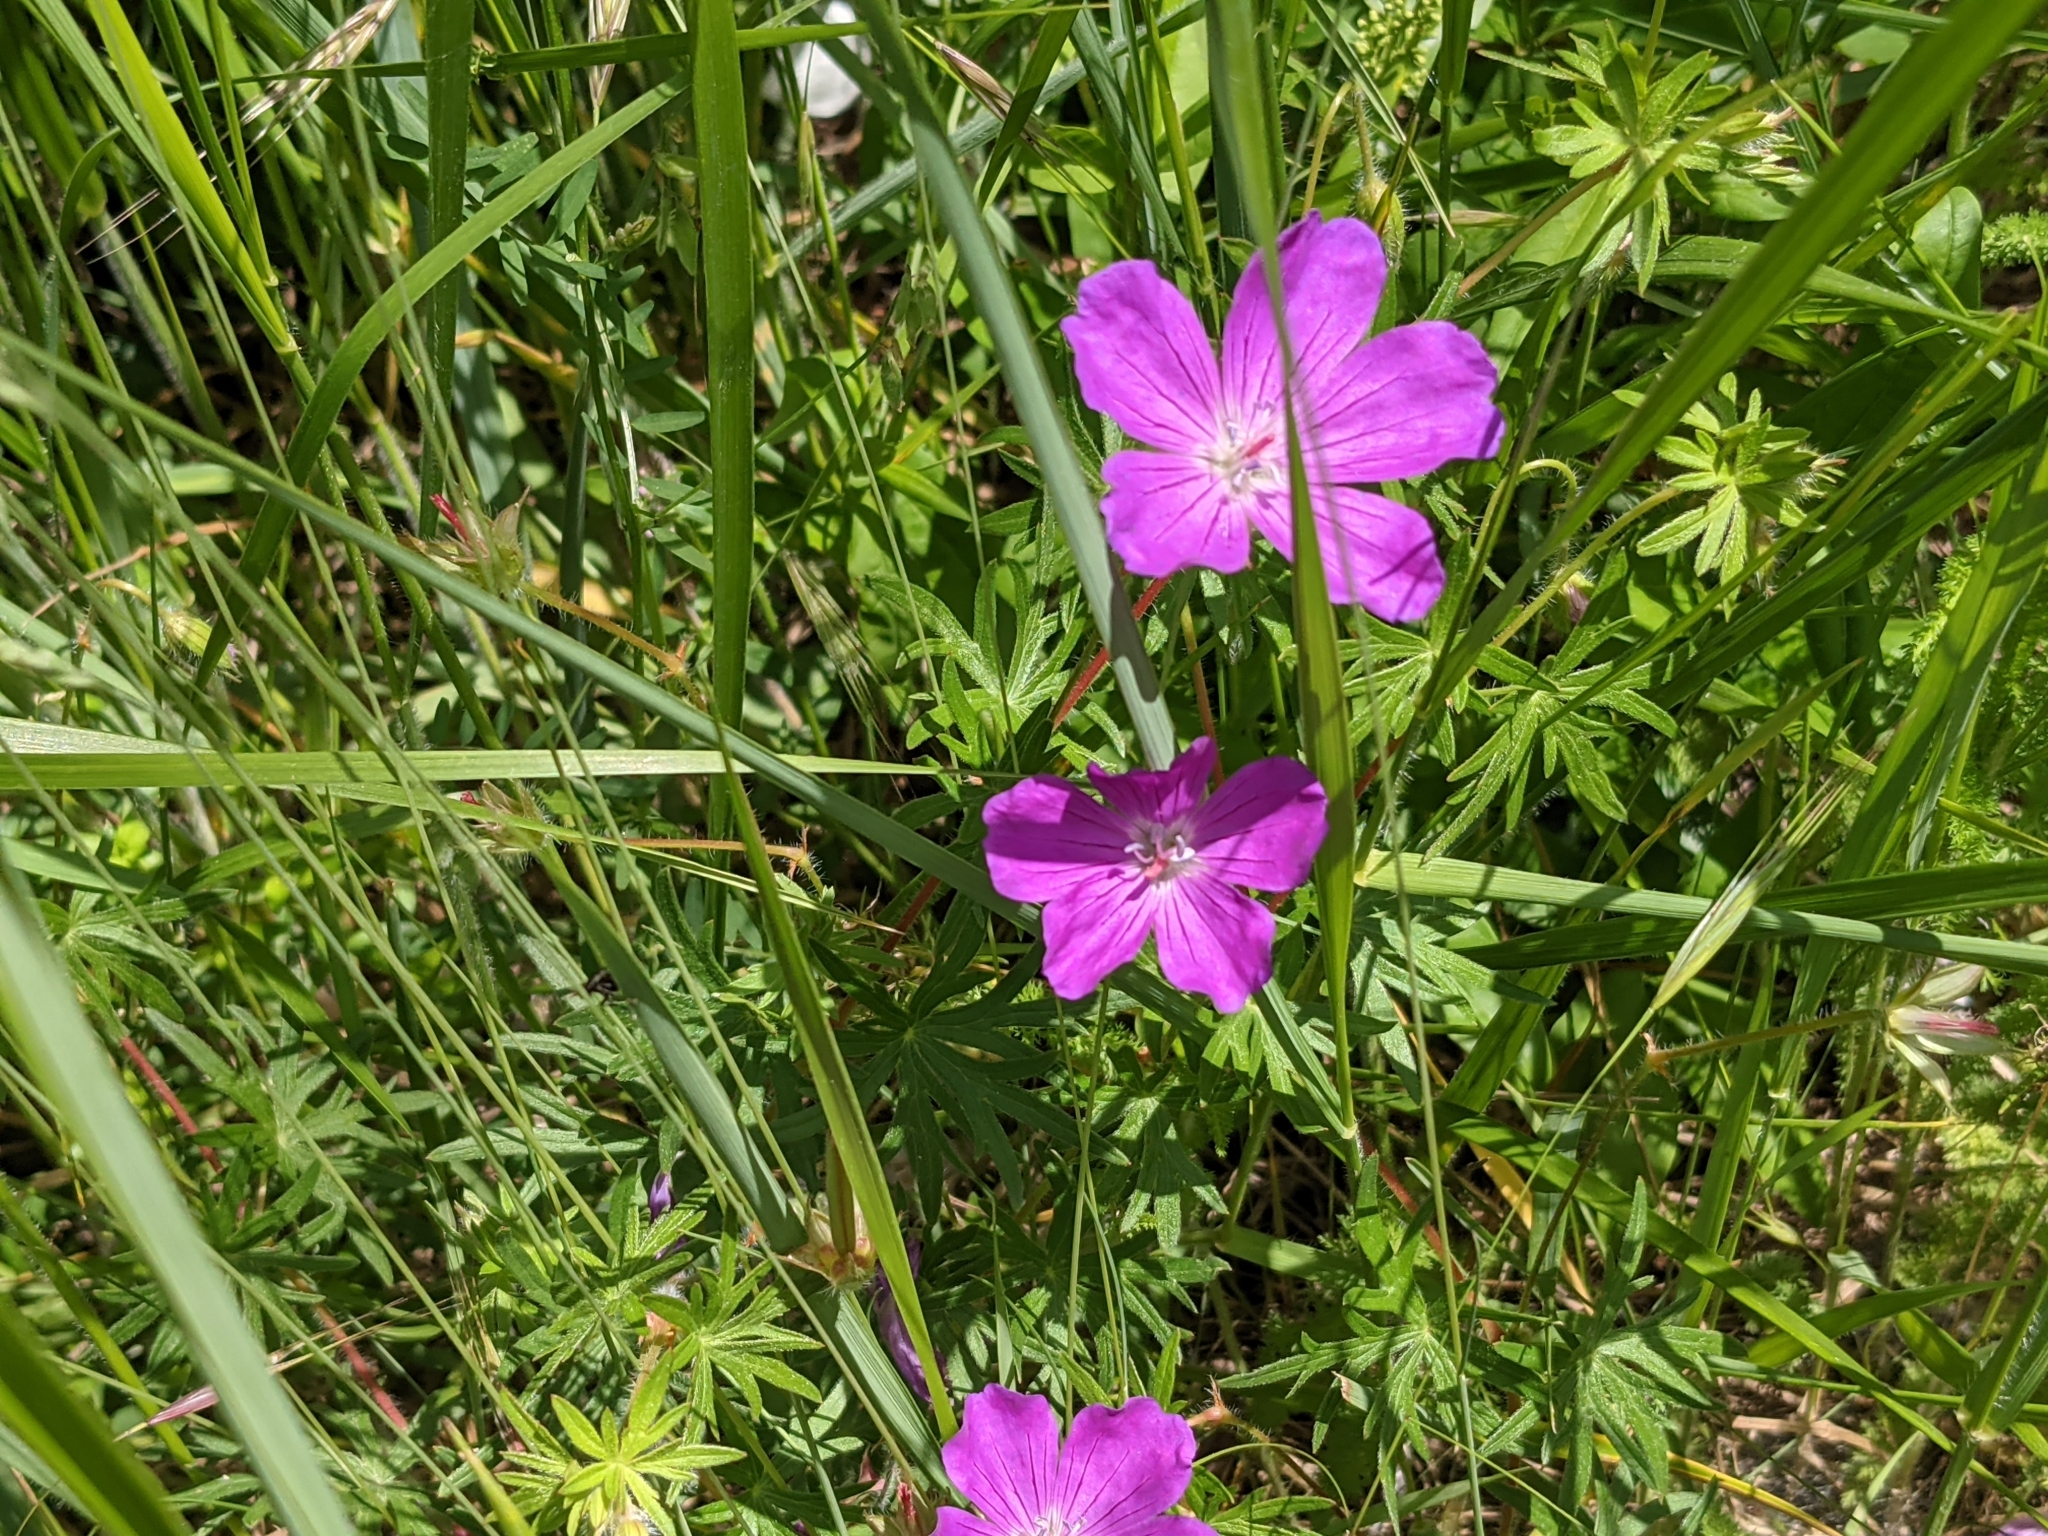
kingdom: Plantae
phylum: Tracheophyta
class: Magnoliopsida
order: Geraniales
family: Geraniaceae
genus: Geranium
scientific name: Geranium sanguineum
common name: Bloody crane's-bill
